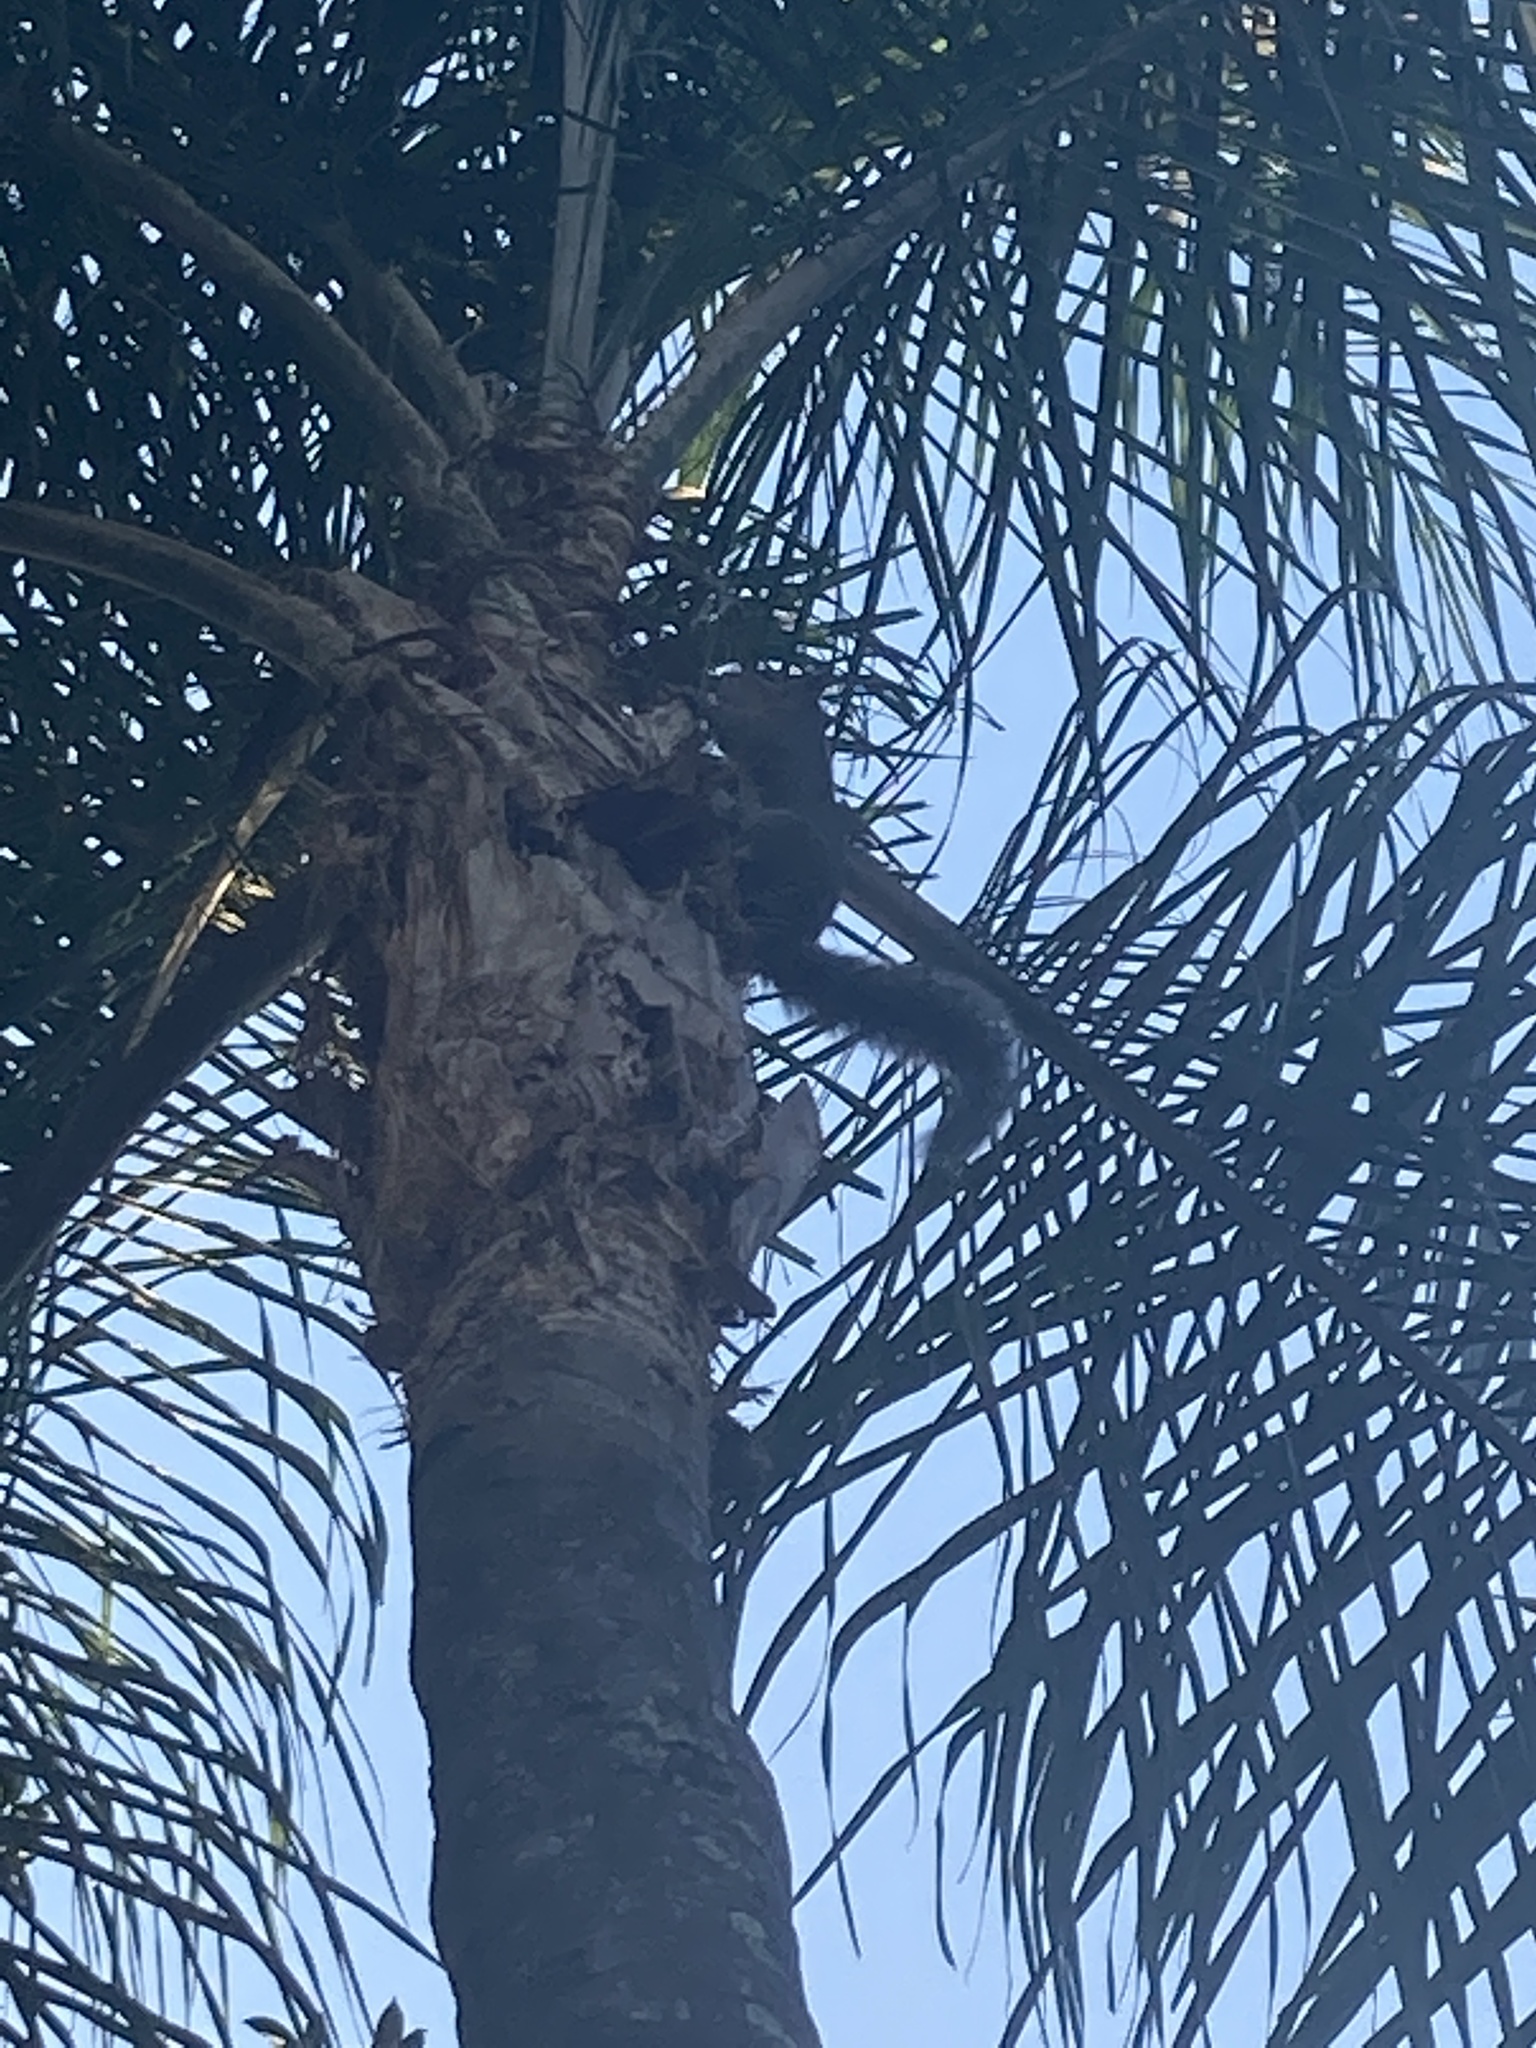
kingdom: Animalia
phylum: Chordata
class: Mammalia
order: Rodentia
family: Sciuridae
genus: Sciurus
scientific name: Sciurus carolinensis
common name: Eastern gray squirrel
